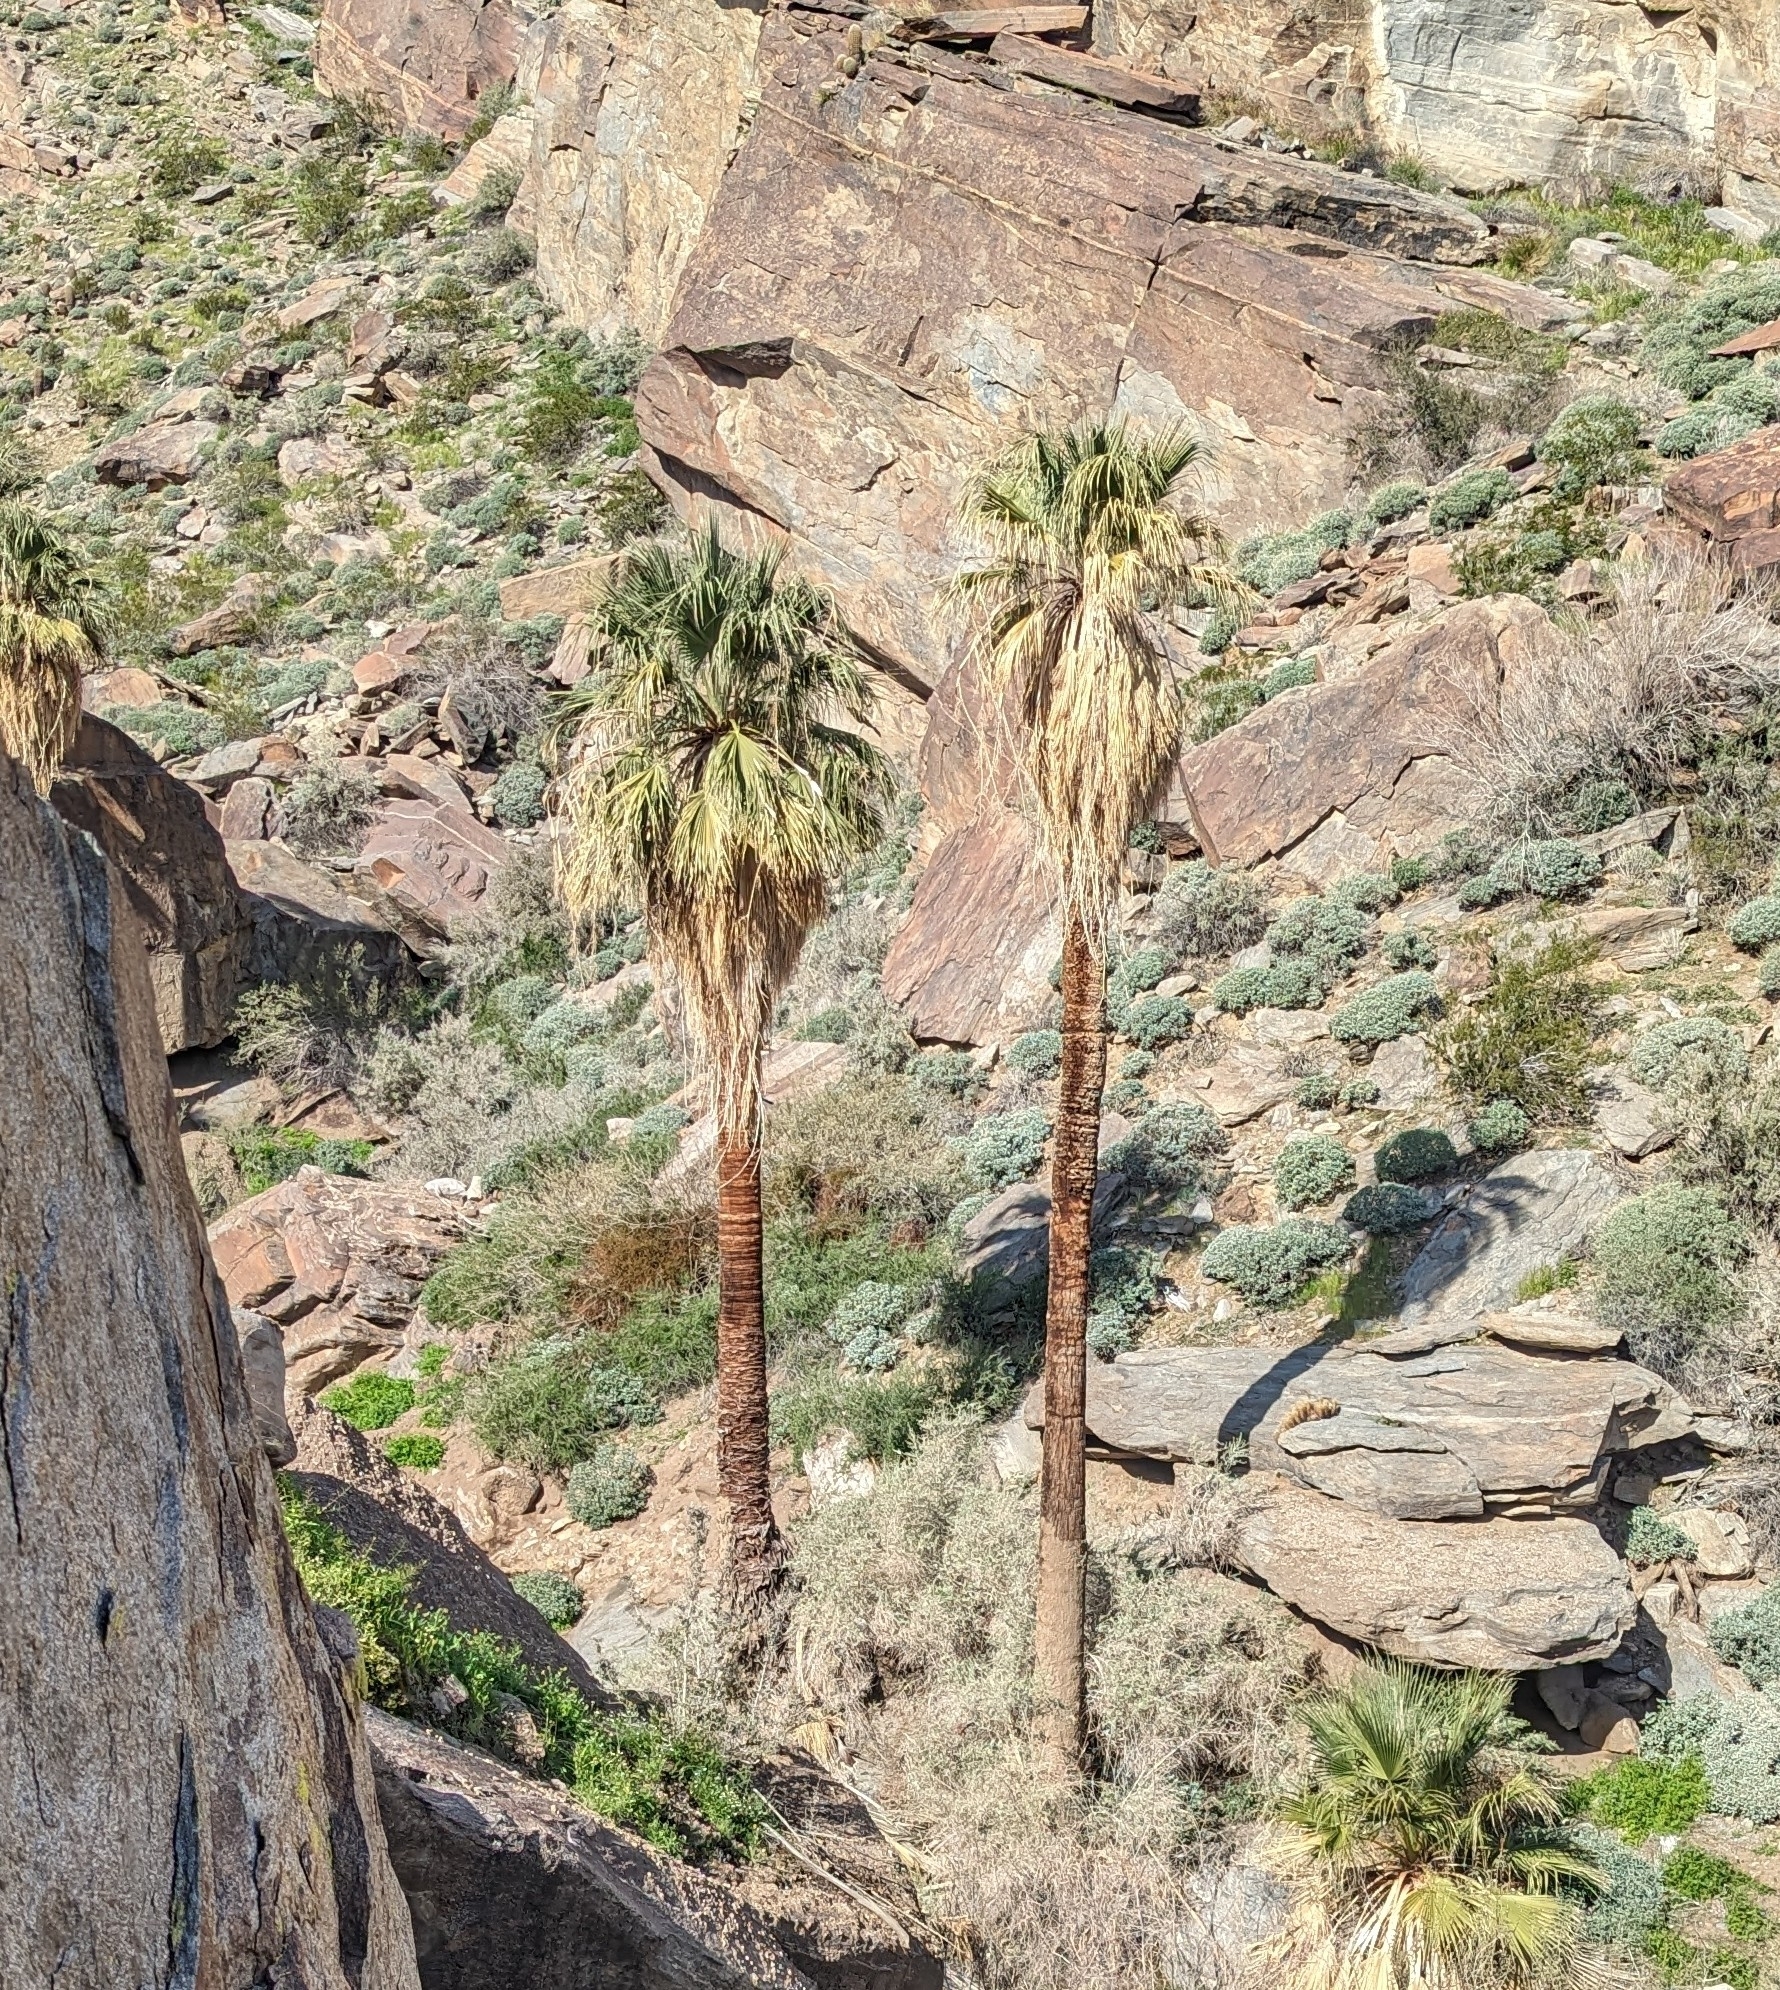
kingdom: Plantae
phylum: Tracheophyta
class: Liliopsida
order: Arecales
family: Arecaceae
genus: Washingtonia
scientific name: Washingtonia filifera
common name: California fan palm
